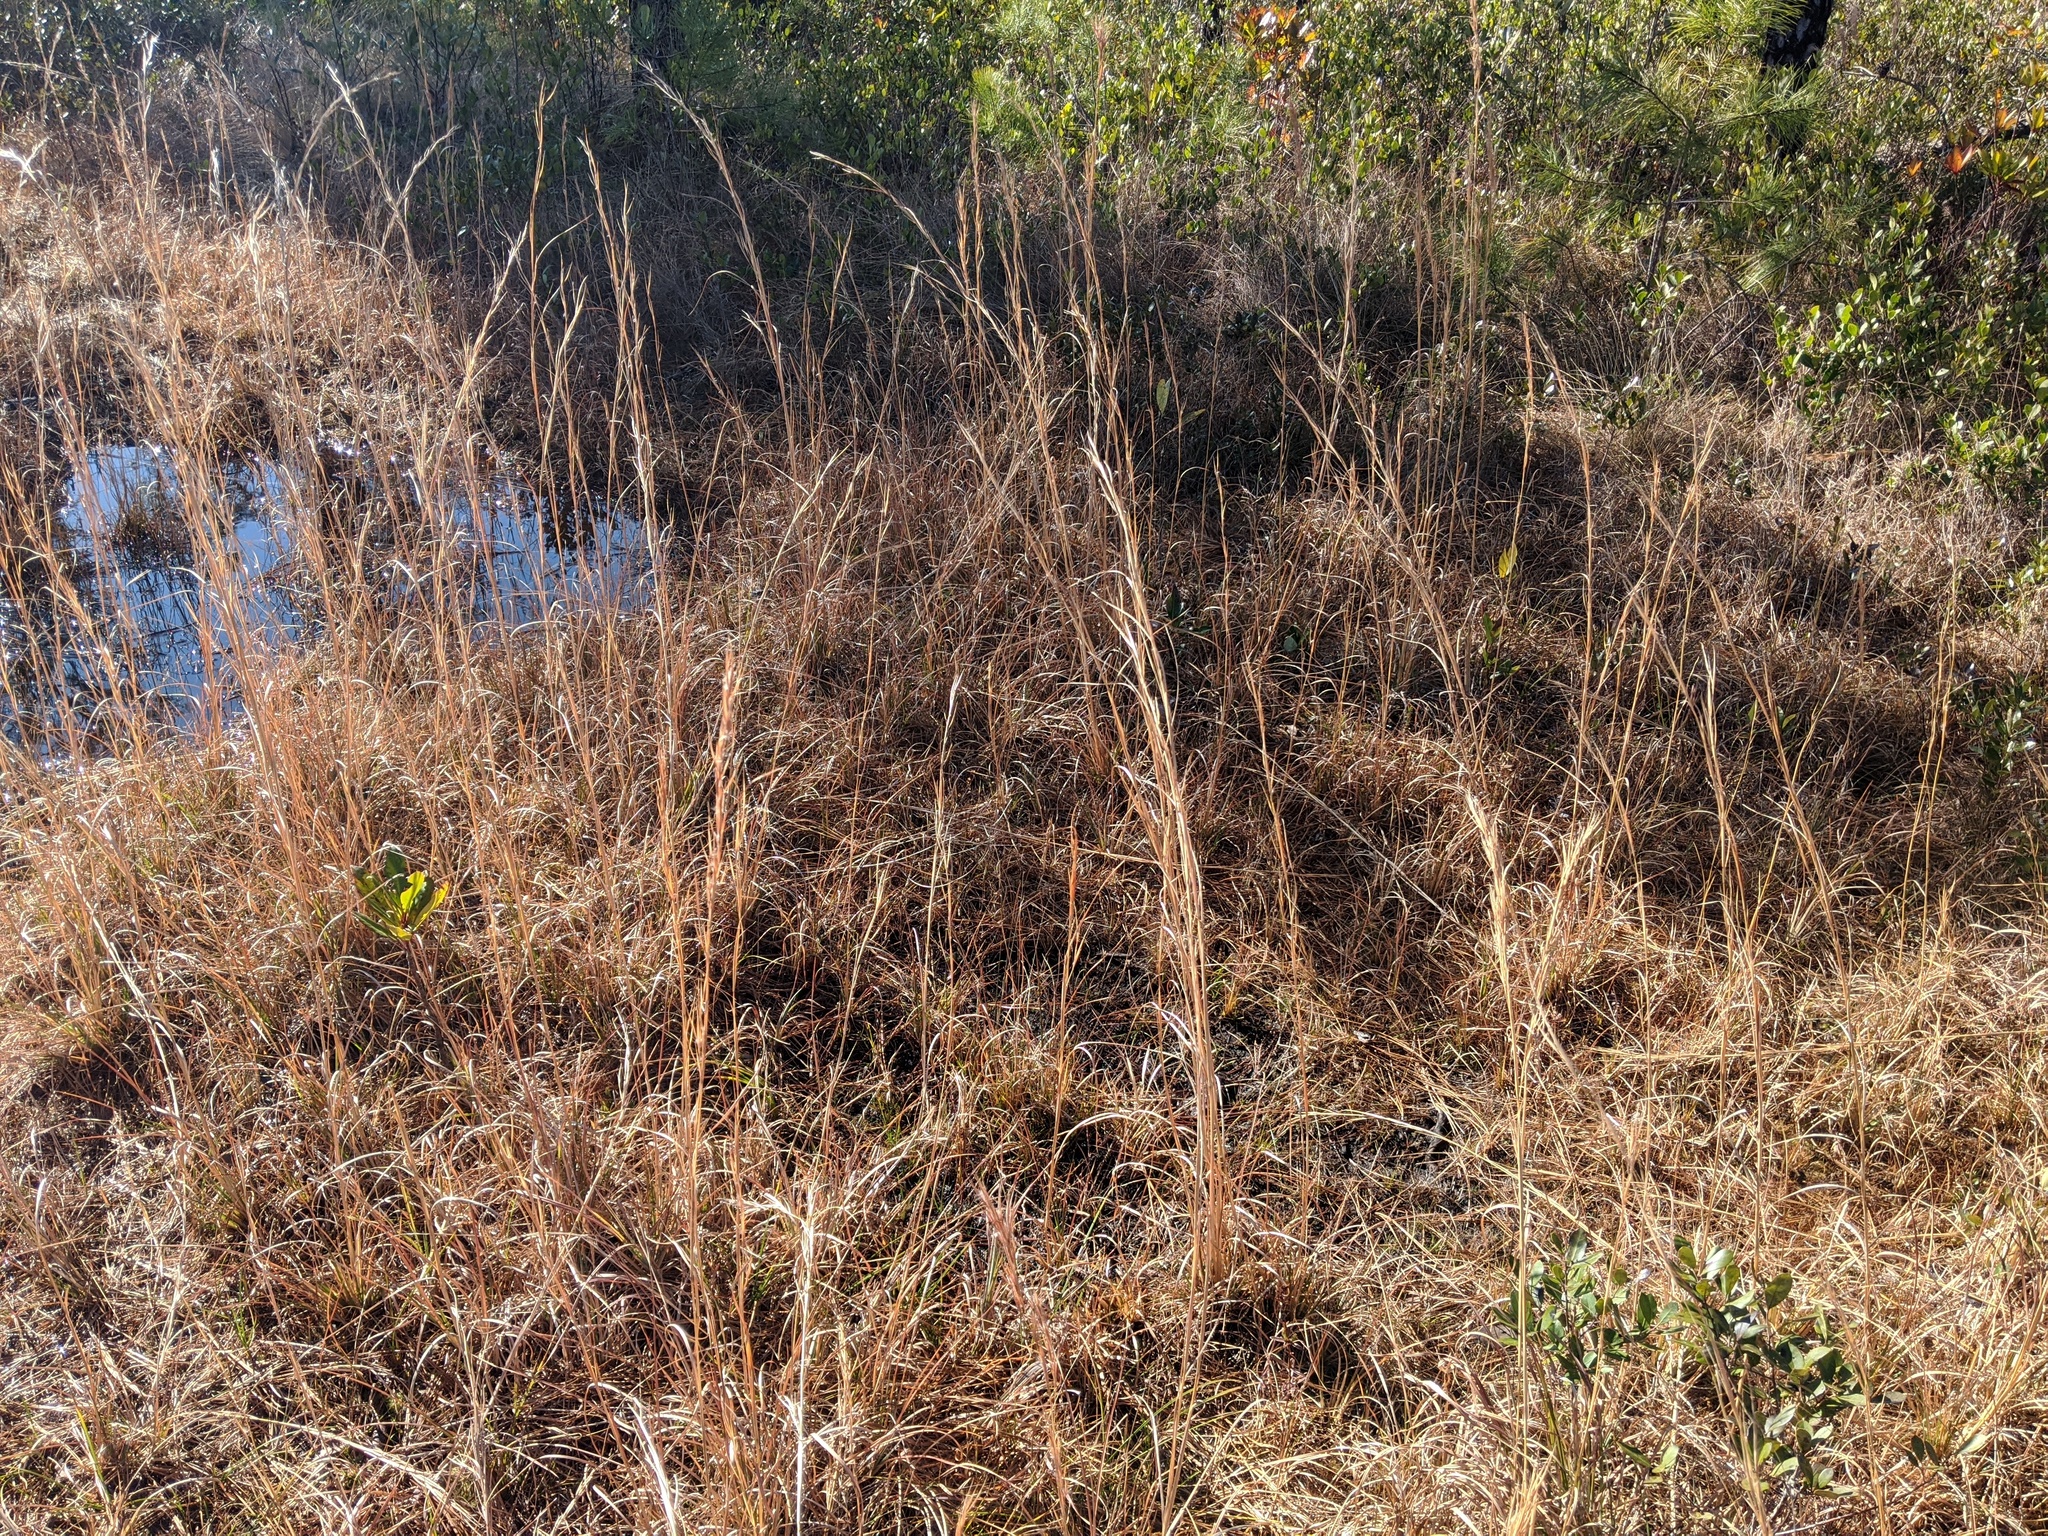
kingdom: Plantae
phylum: Tracheophyta
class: Liliopsida
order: Poales
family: Poaceae
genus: Andropogon
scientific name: Andropogon virginicus
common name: Broomsedge bluestem
